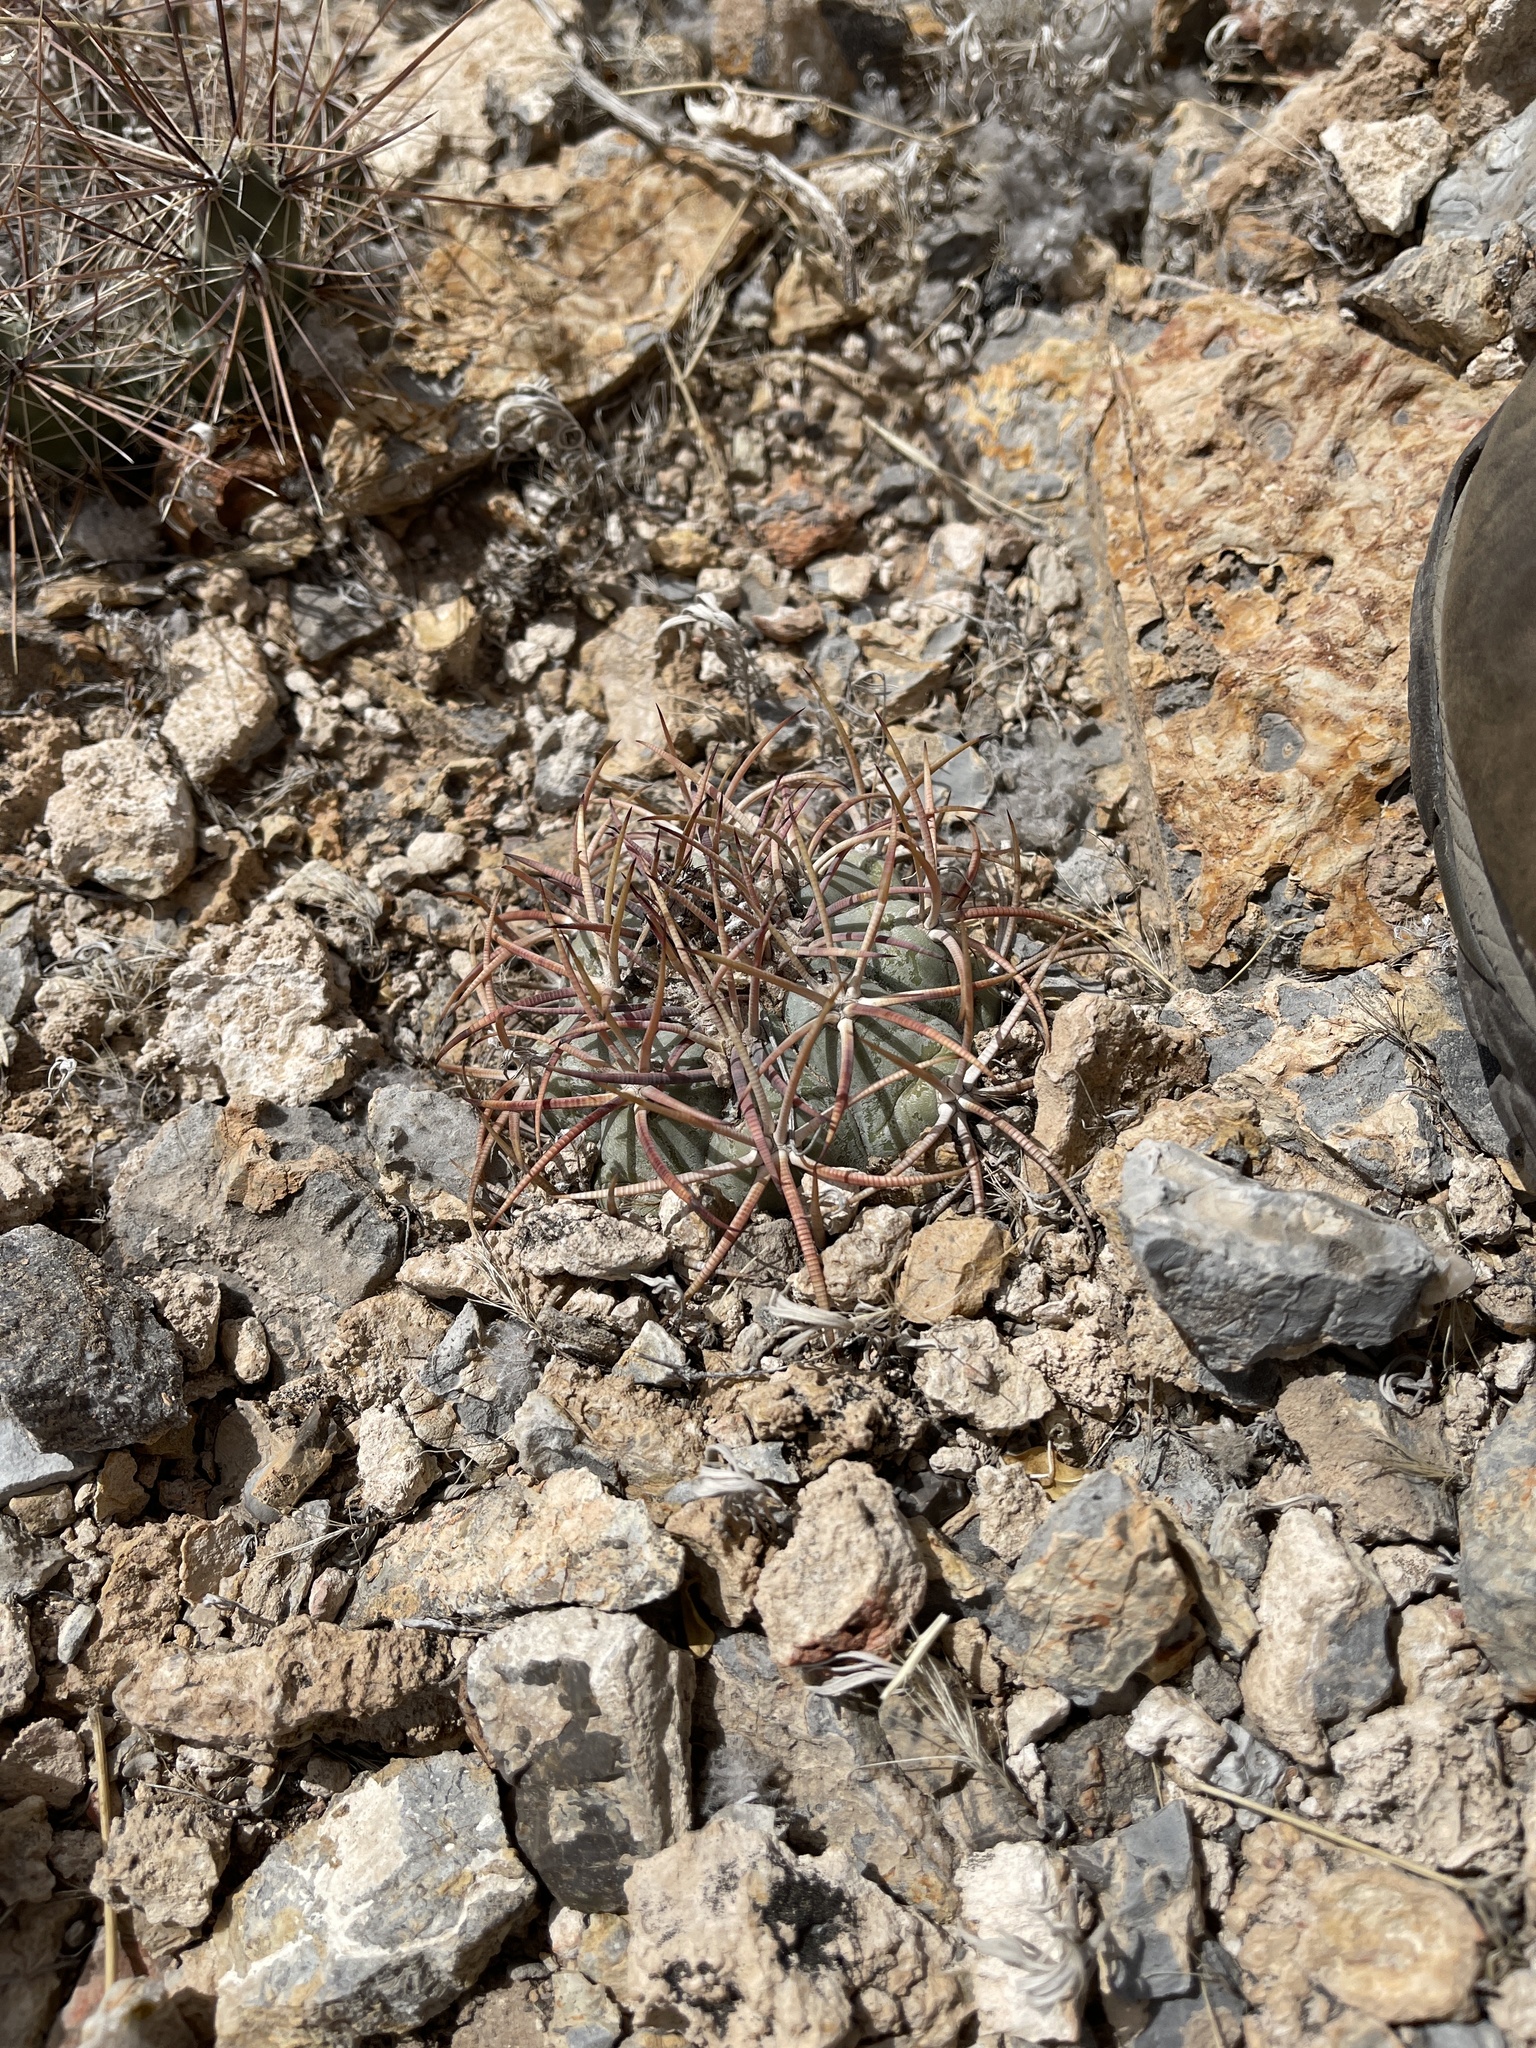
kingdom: Plantae
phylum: Tracheophyta
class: Magnoliopsida
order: Caryophyllales
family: Cactaceae
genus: Echinocactus
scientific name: Echinocactus horizonthalonius
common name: Devilshead
